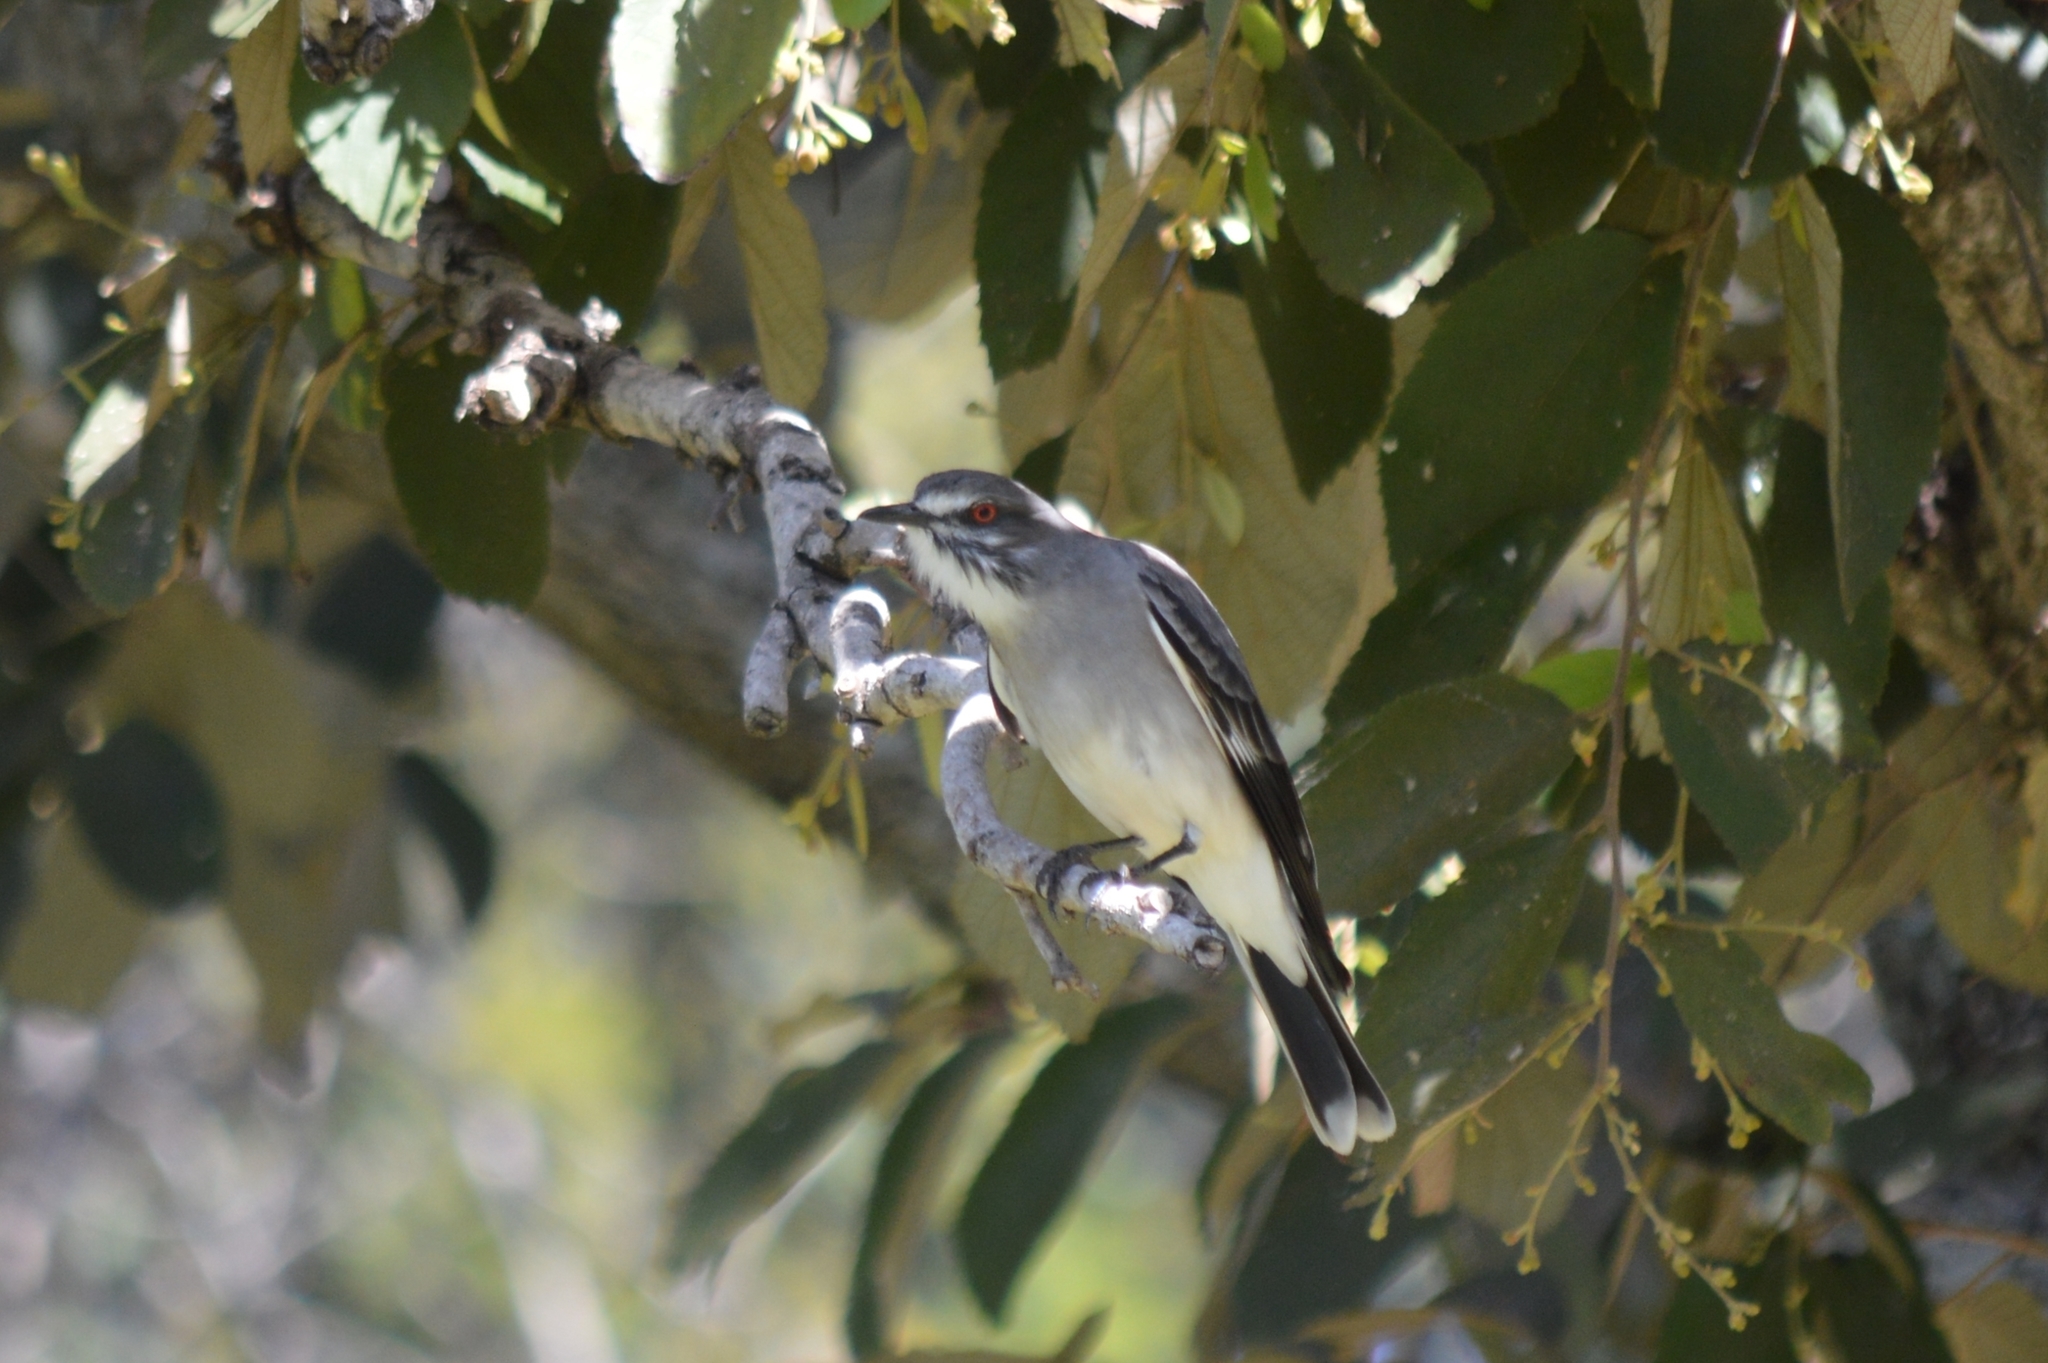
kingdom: Animalia
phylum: Chordata
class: Aves
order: Passeriformes
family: Tyrannidae
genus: Xolmis
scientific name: Xolmis cinereus
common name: Grey monjita
